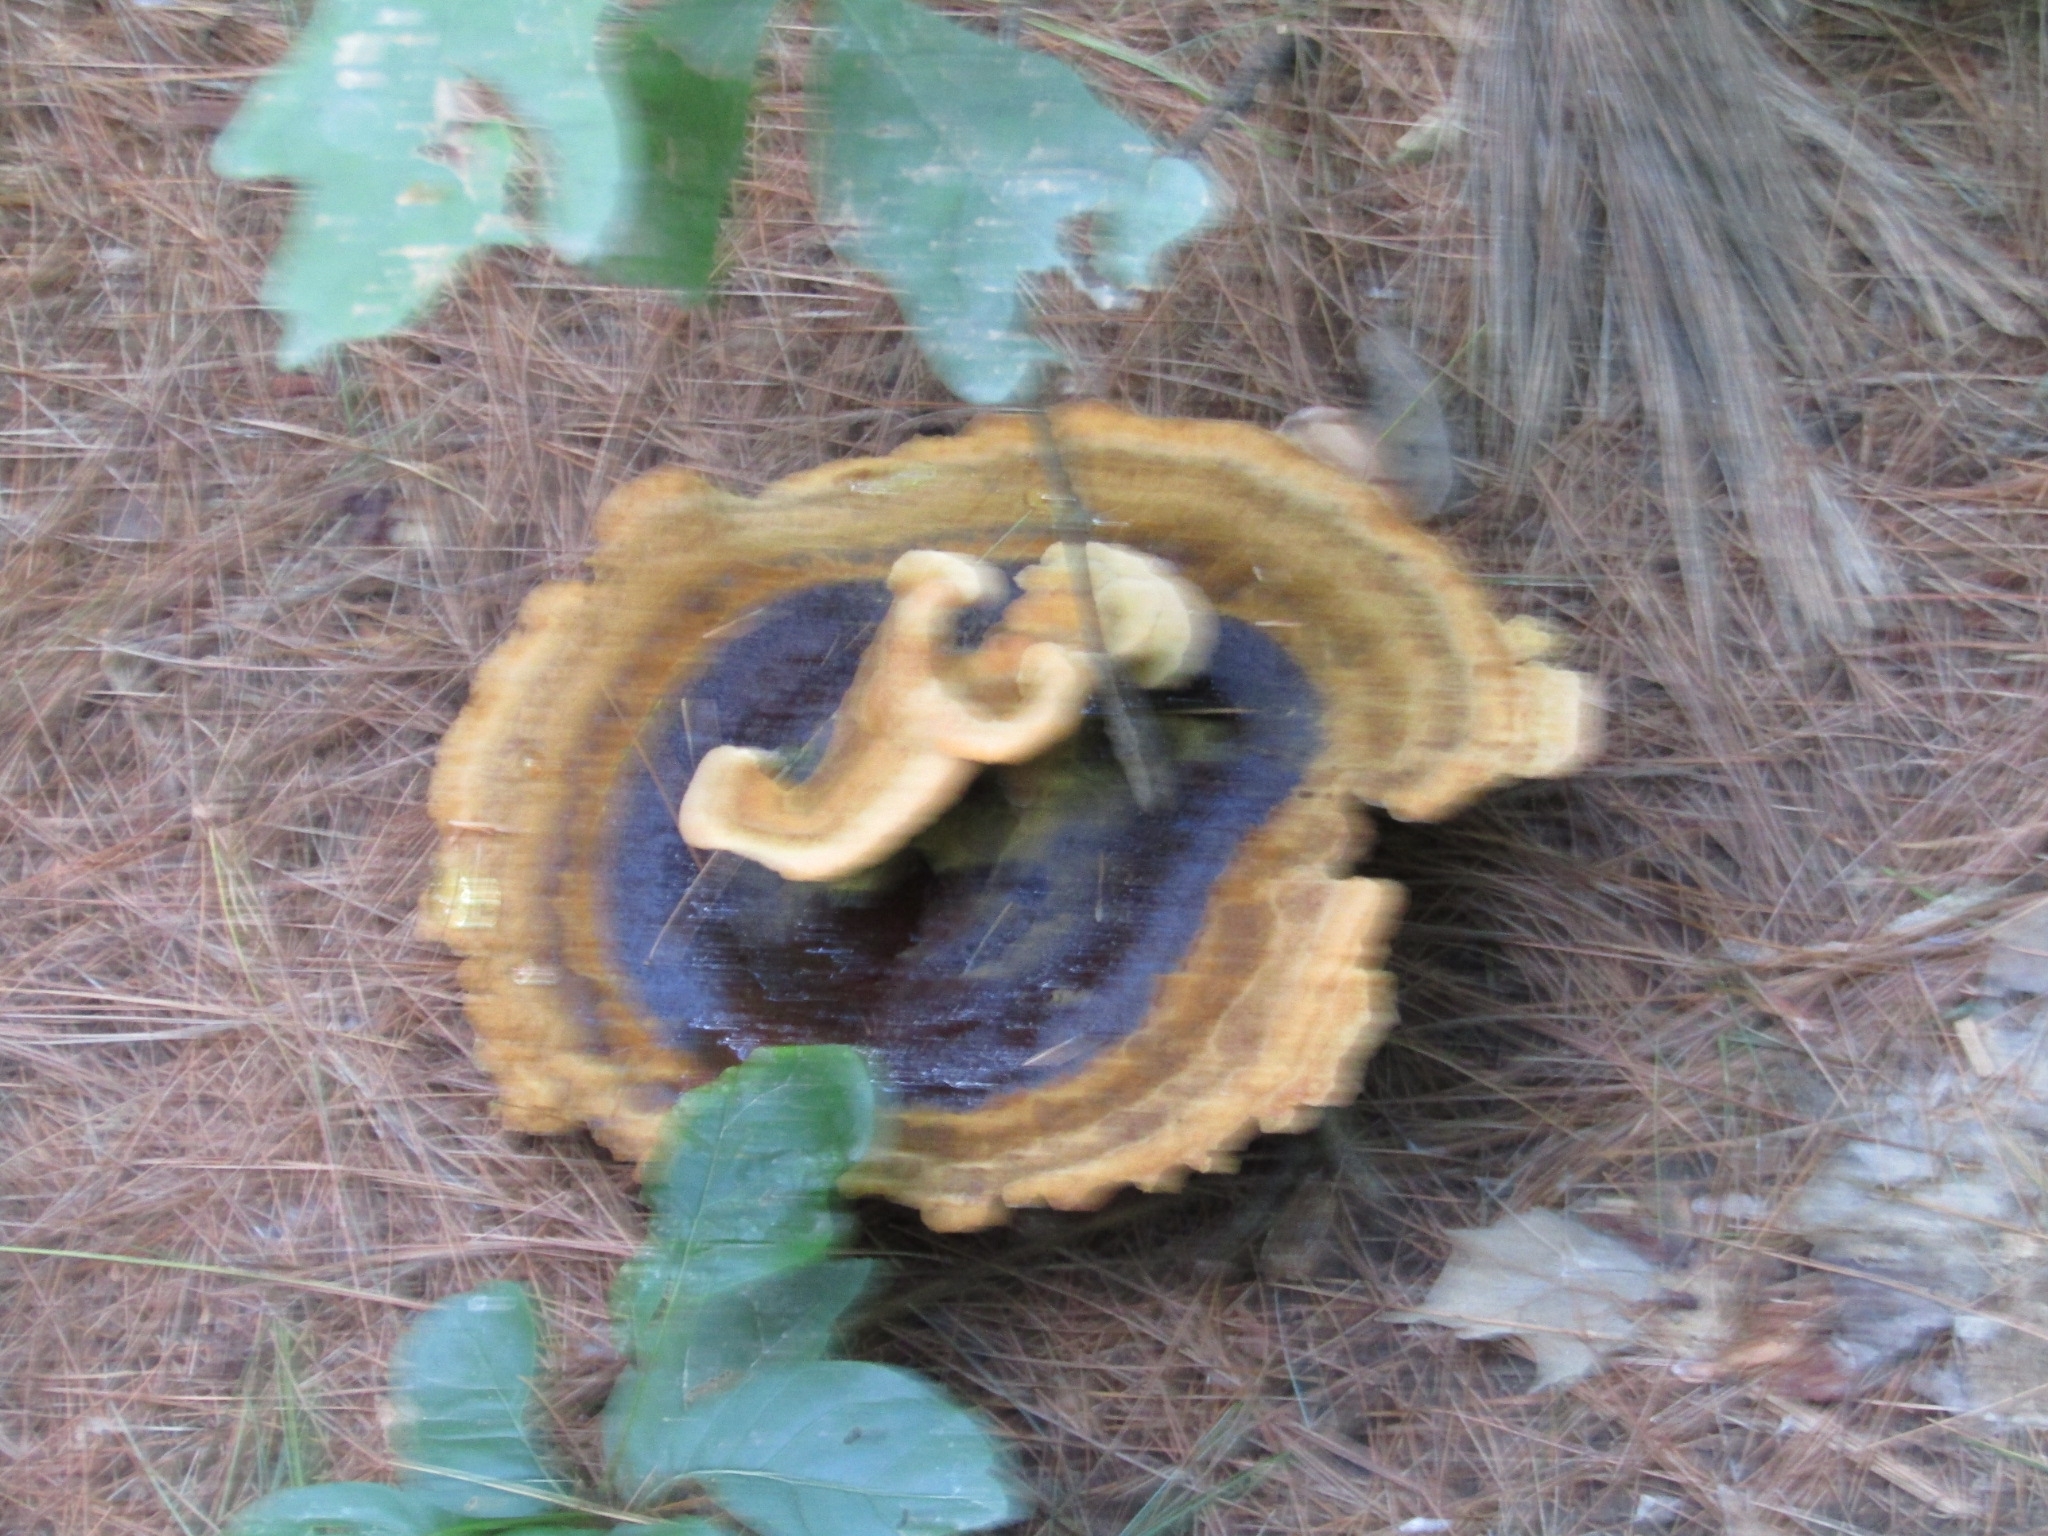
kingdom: Fungi
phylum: Basidiomycota
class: Agaricomycetes
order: Polyporales
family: Laetiporaceae
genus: Phaeolus
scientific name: Phaeolus schweinitzii
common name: Dyer's mazegill
